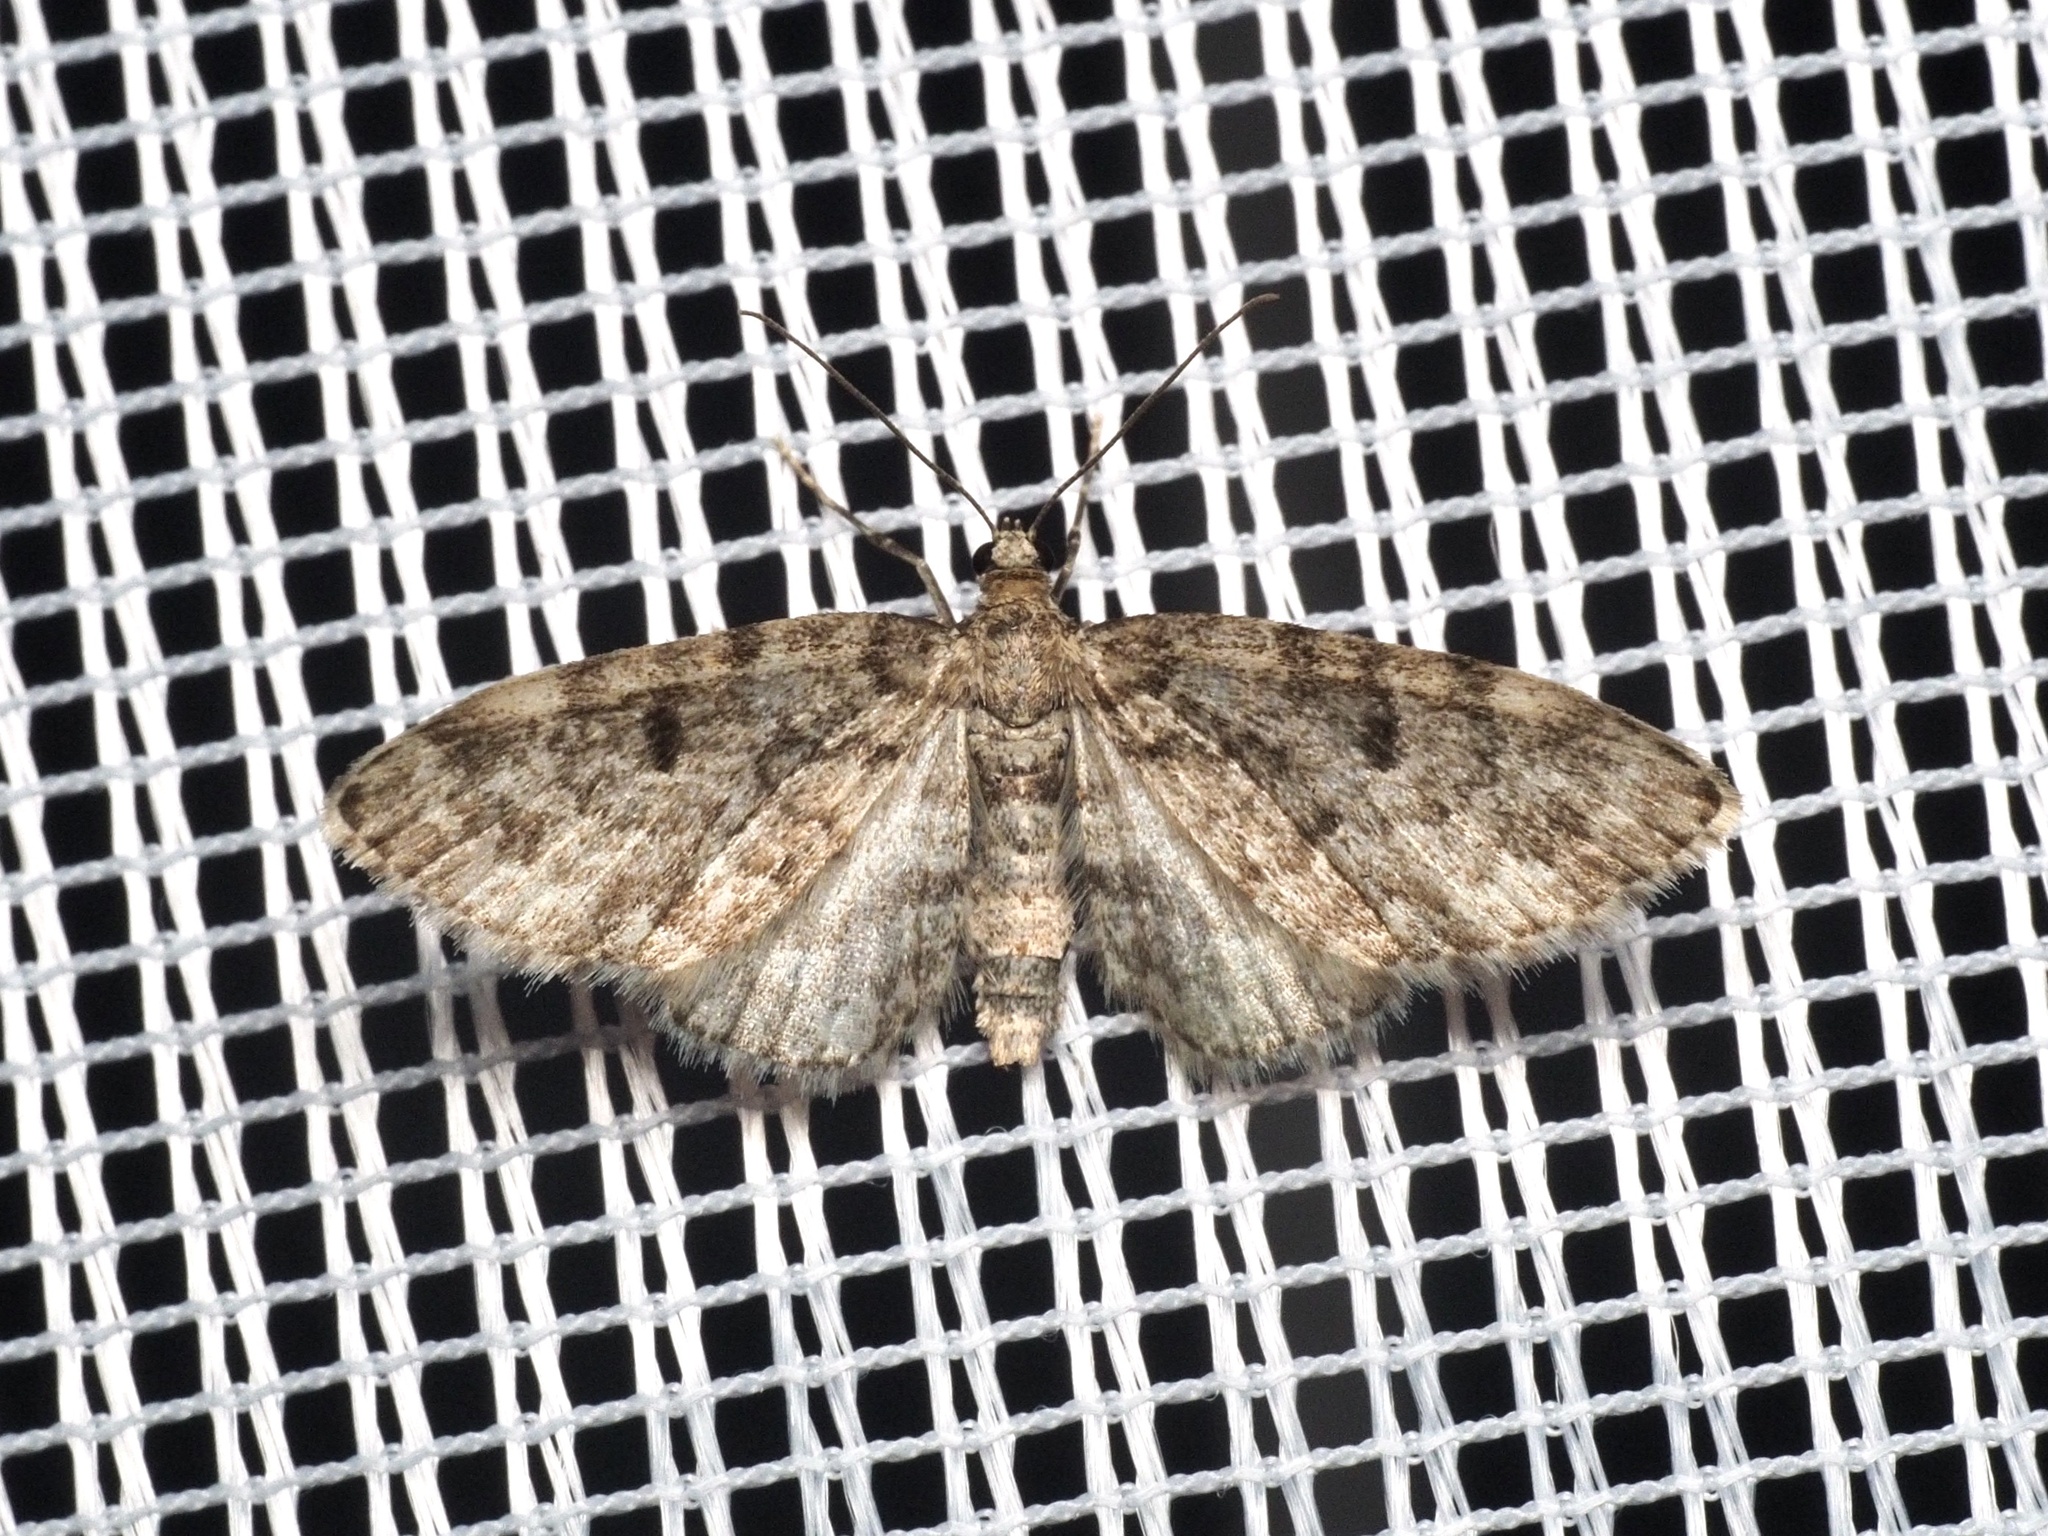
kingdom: Animalia
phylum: Arthropoda
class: Insecta
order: Lepidoptera
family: Geometridae
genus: Eupithecia
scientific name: Eupithecia tantillaria
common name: Dwarf pug
